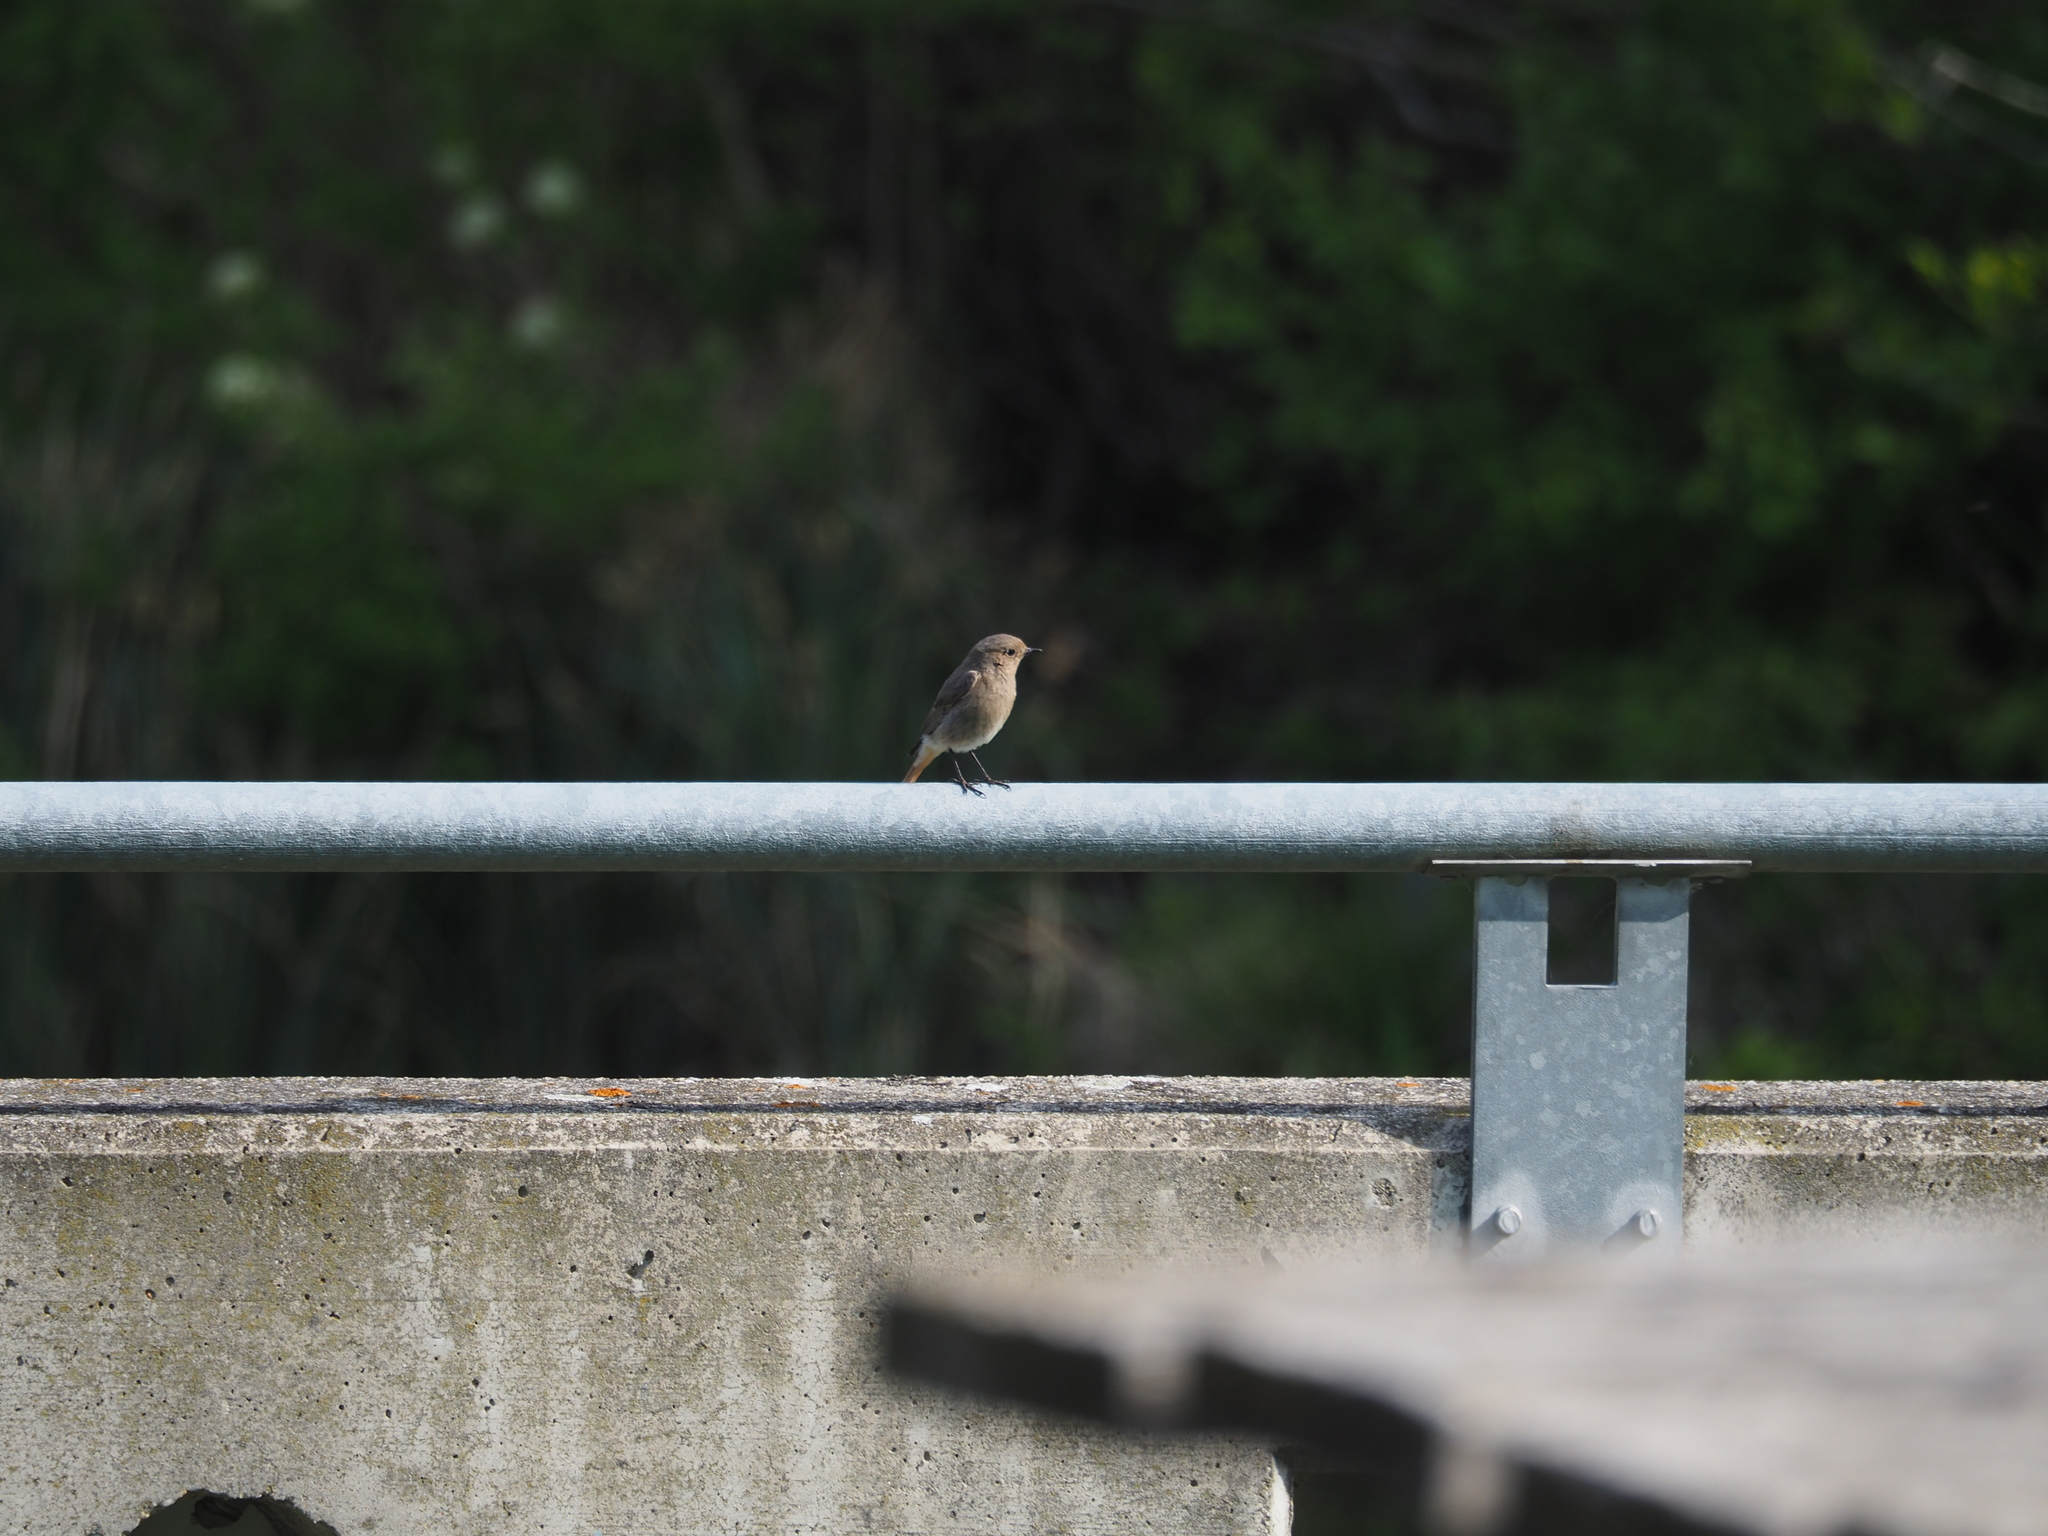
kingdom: Animalia
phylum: Chordata
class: Aves
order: Passeriformes
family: Muscicapidae
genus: Phoenicurus
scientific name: Phoenicurus ochruros
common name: Black redstart
